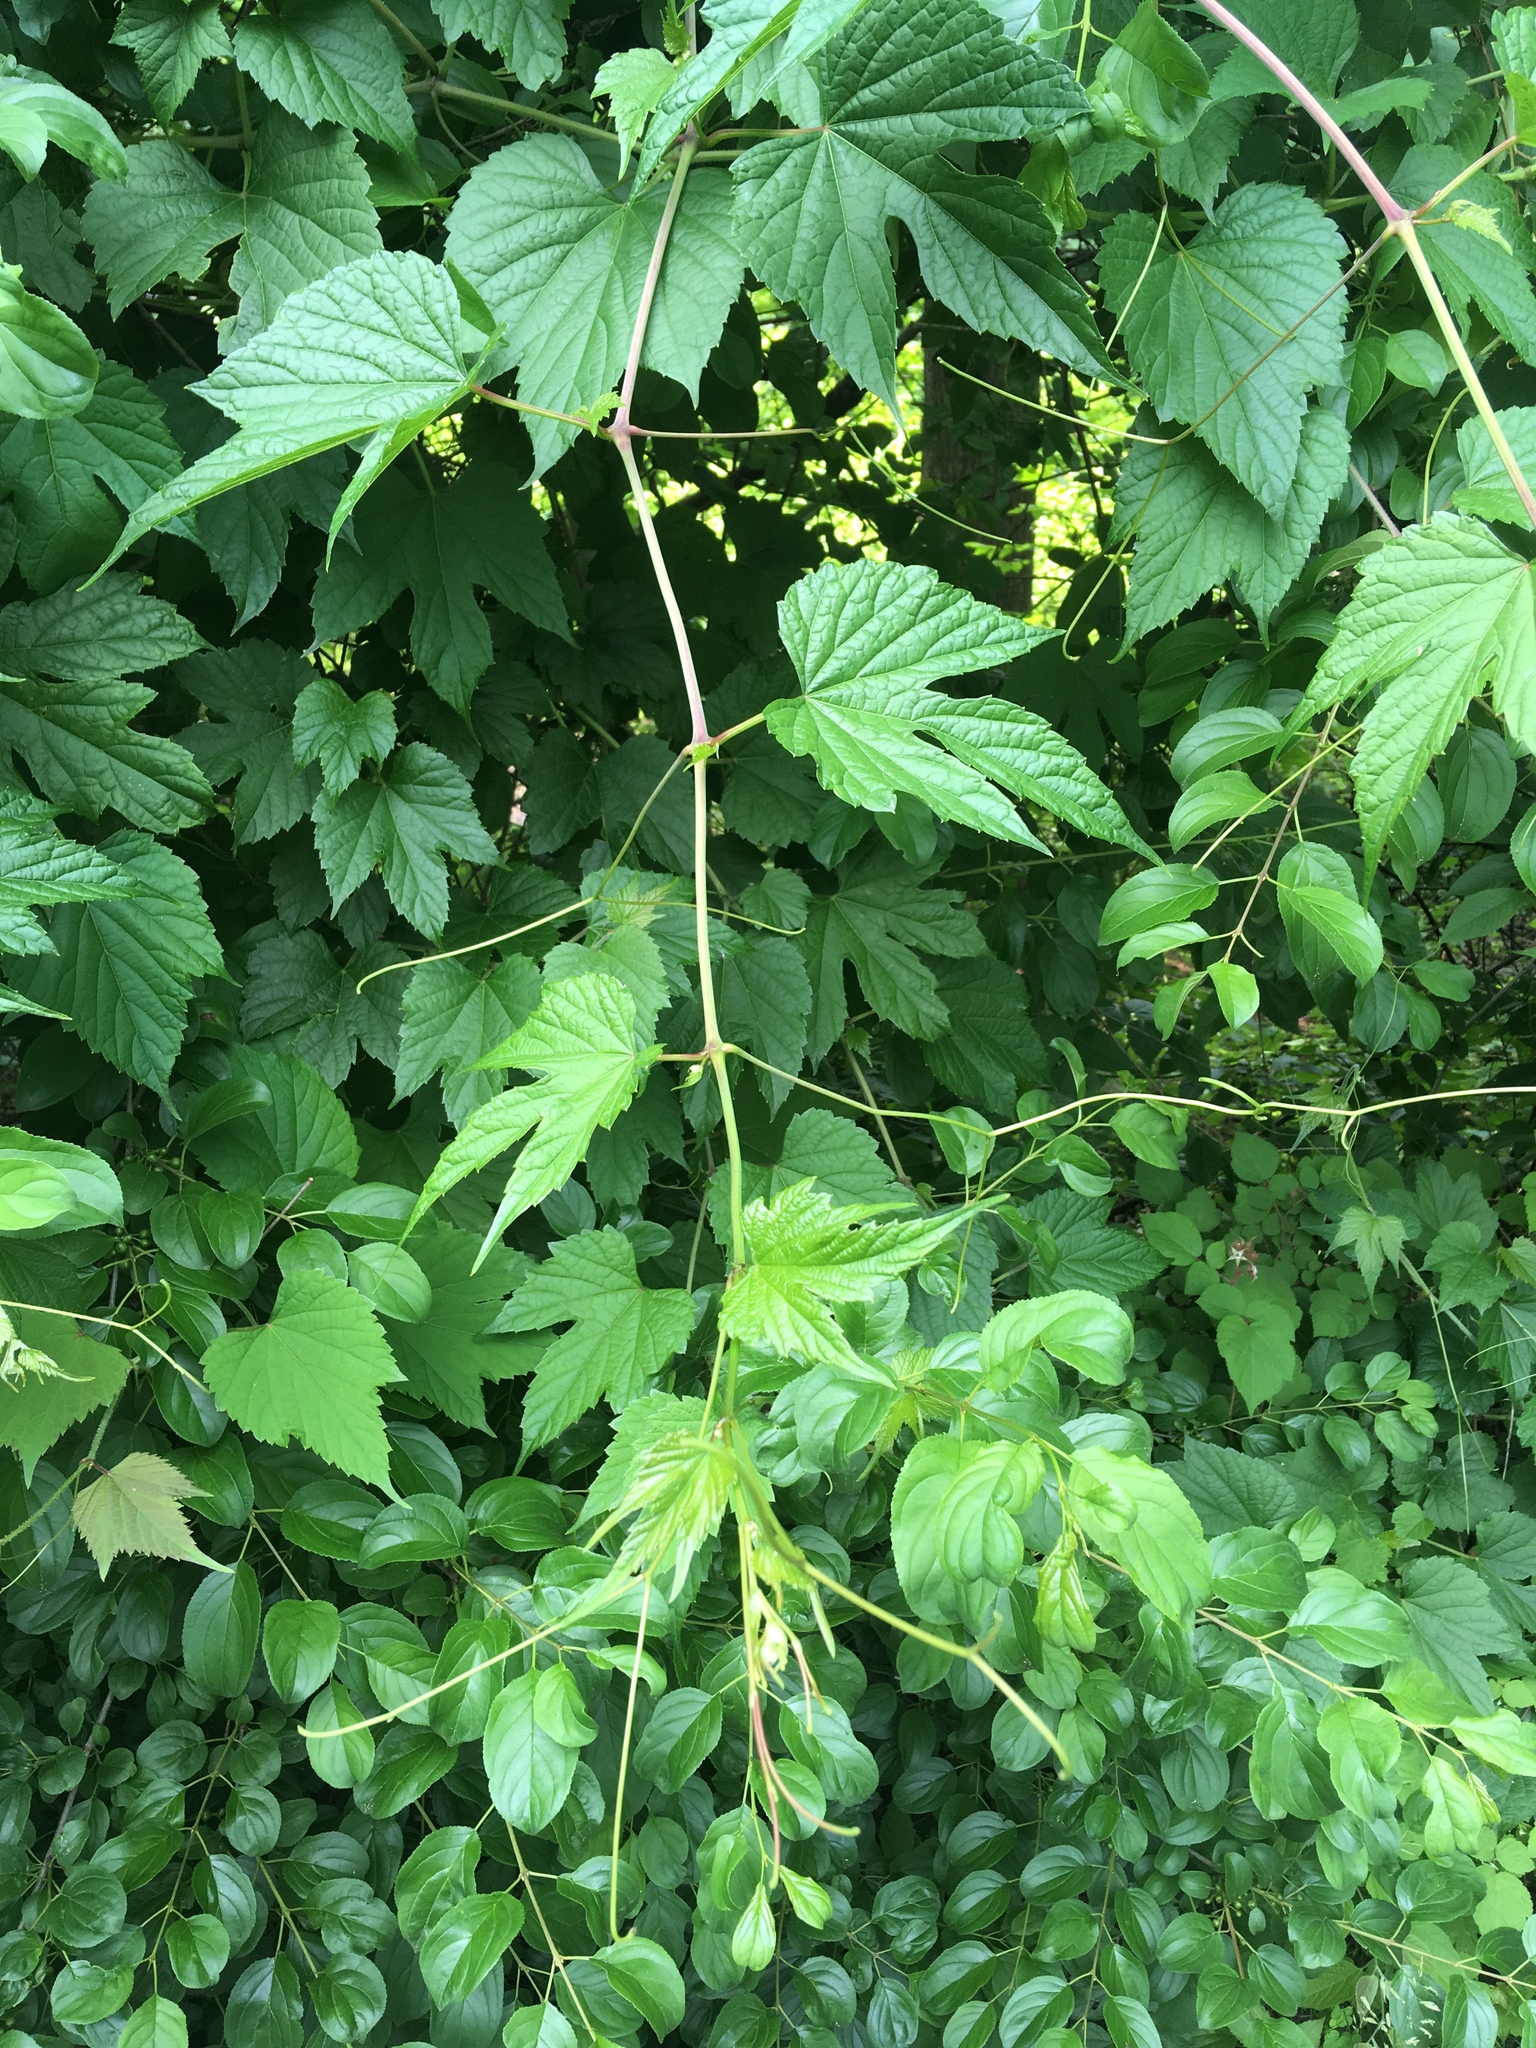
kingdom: Plantae
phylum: Tracheophyta
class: Magnoliopsida
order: Vitales
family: Vitaceae
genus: Ampelopsis
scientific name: Ampelopsis glandulosa
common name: Amur peppervine
